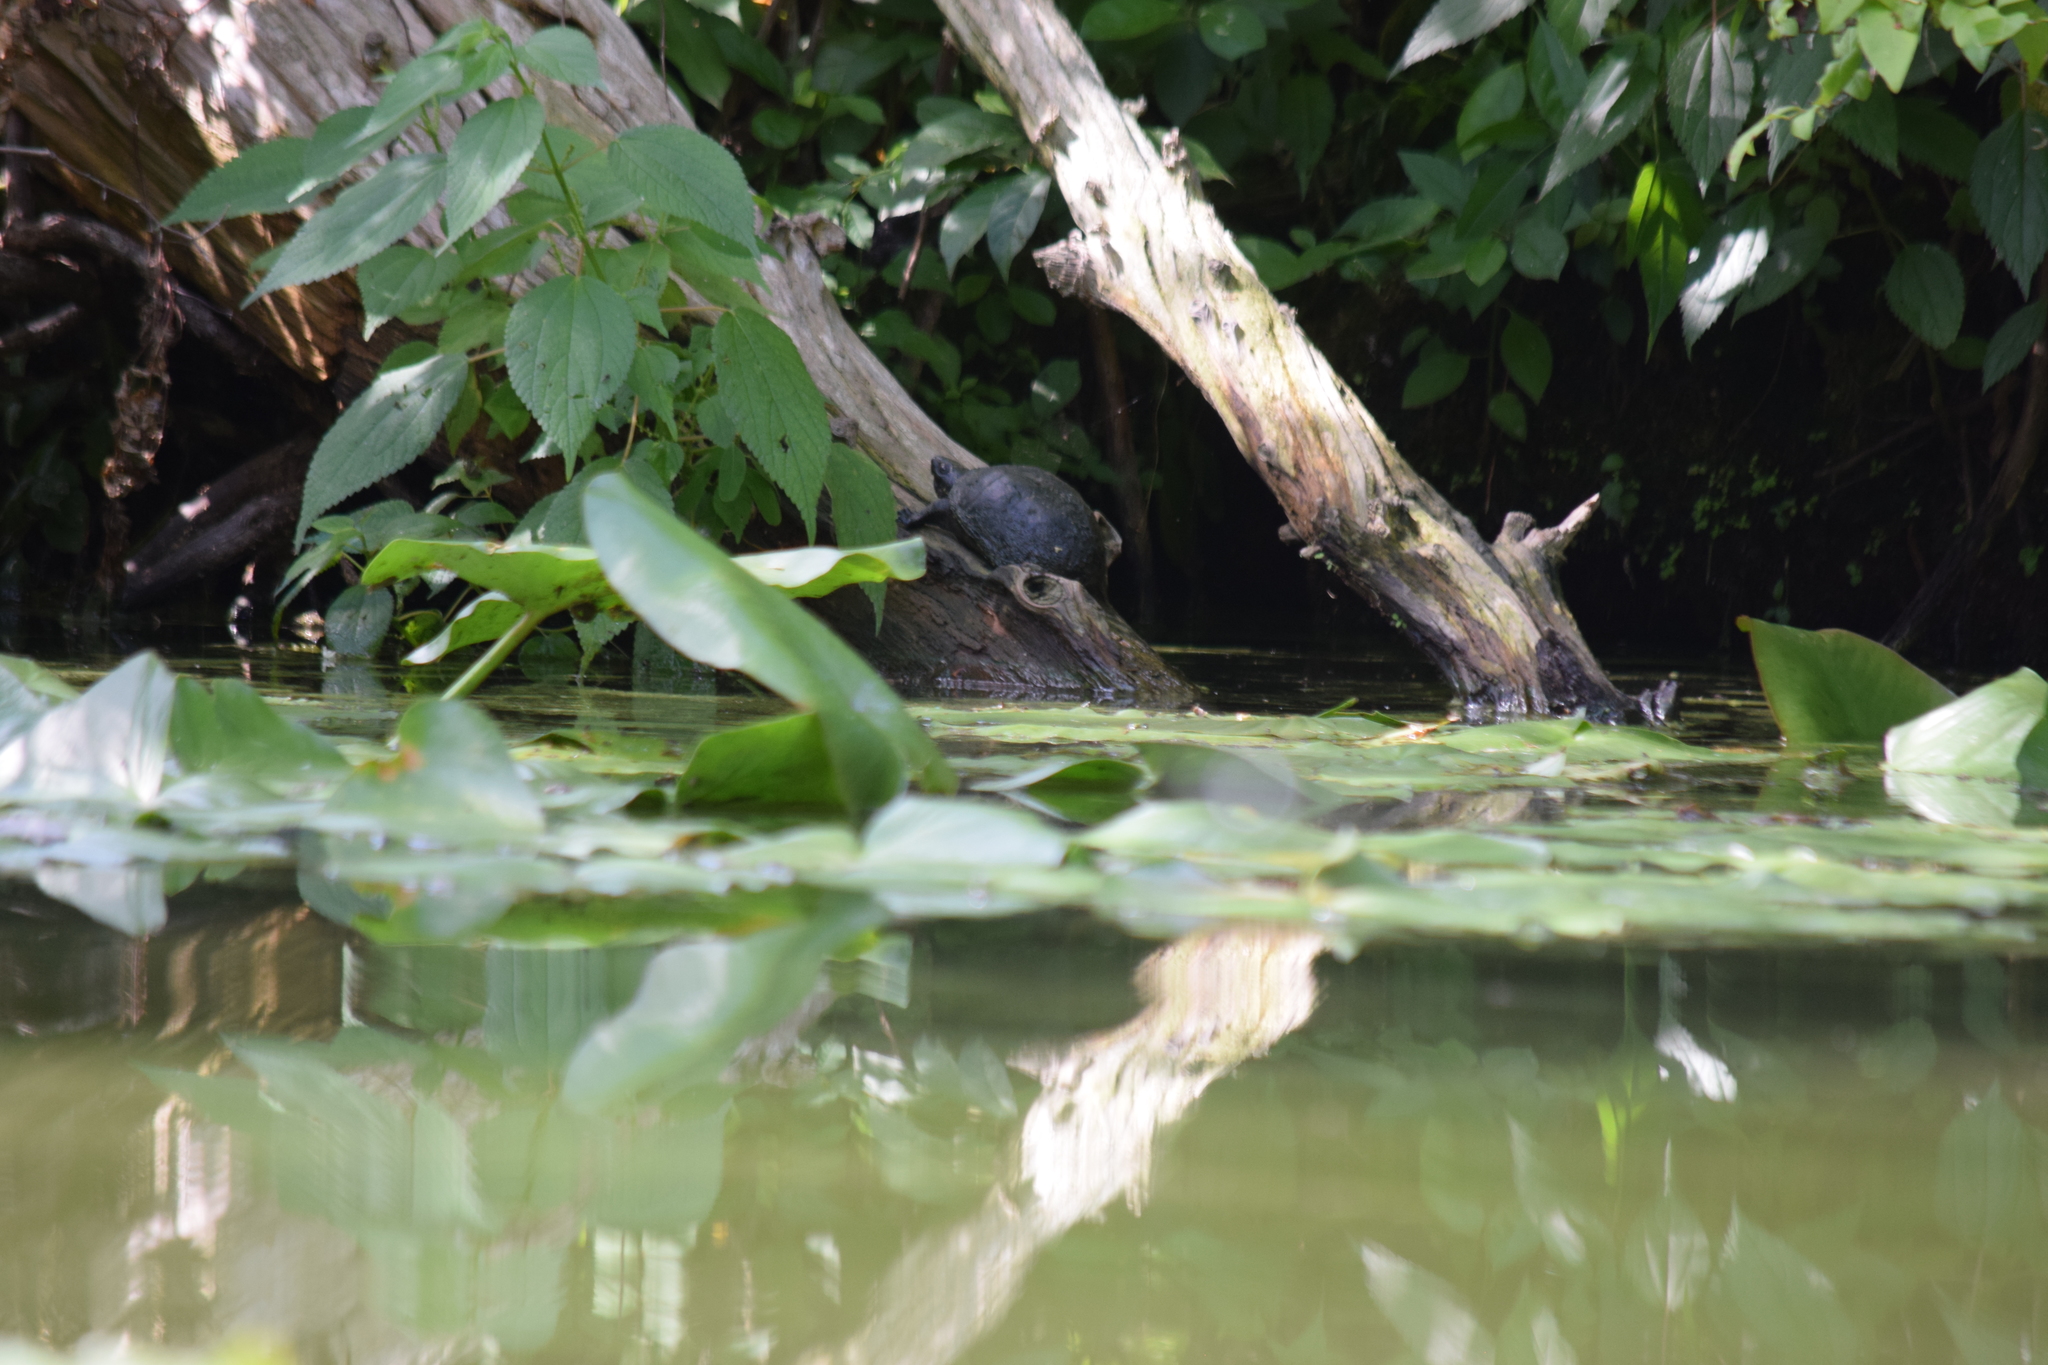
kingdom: Animalia
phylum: Chordata
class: Testudines
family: Kinosternidae
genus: Kinosternon
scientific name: Kinosternon baurii
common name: Striped mud turtle
